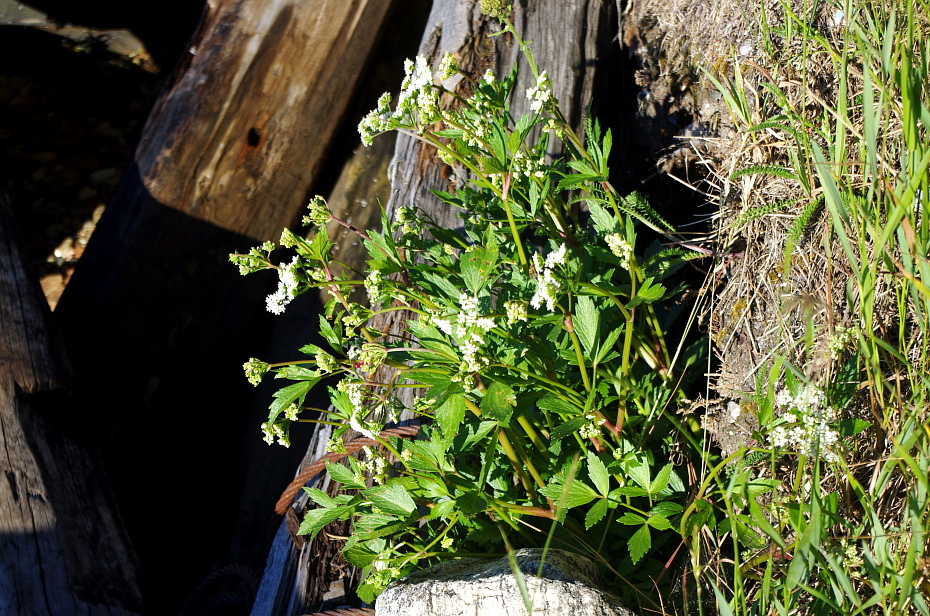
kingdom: Plantae
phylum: Tracheophyta
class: Magnoliopsida
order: Apiales
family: Apiaceae
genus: Ligusticum
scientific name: Ligusticum scothicum
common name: Beach lovage
